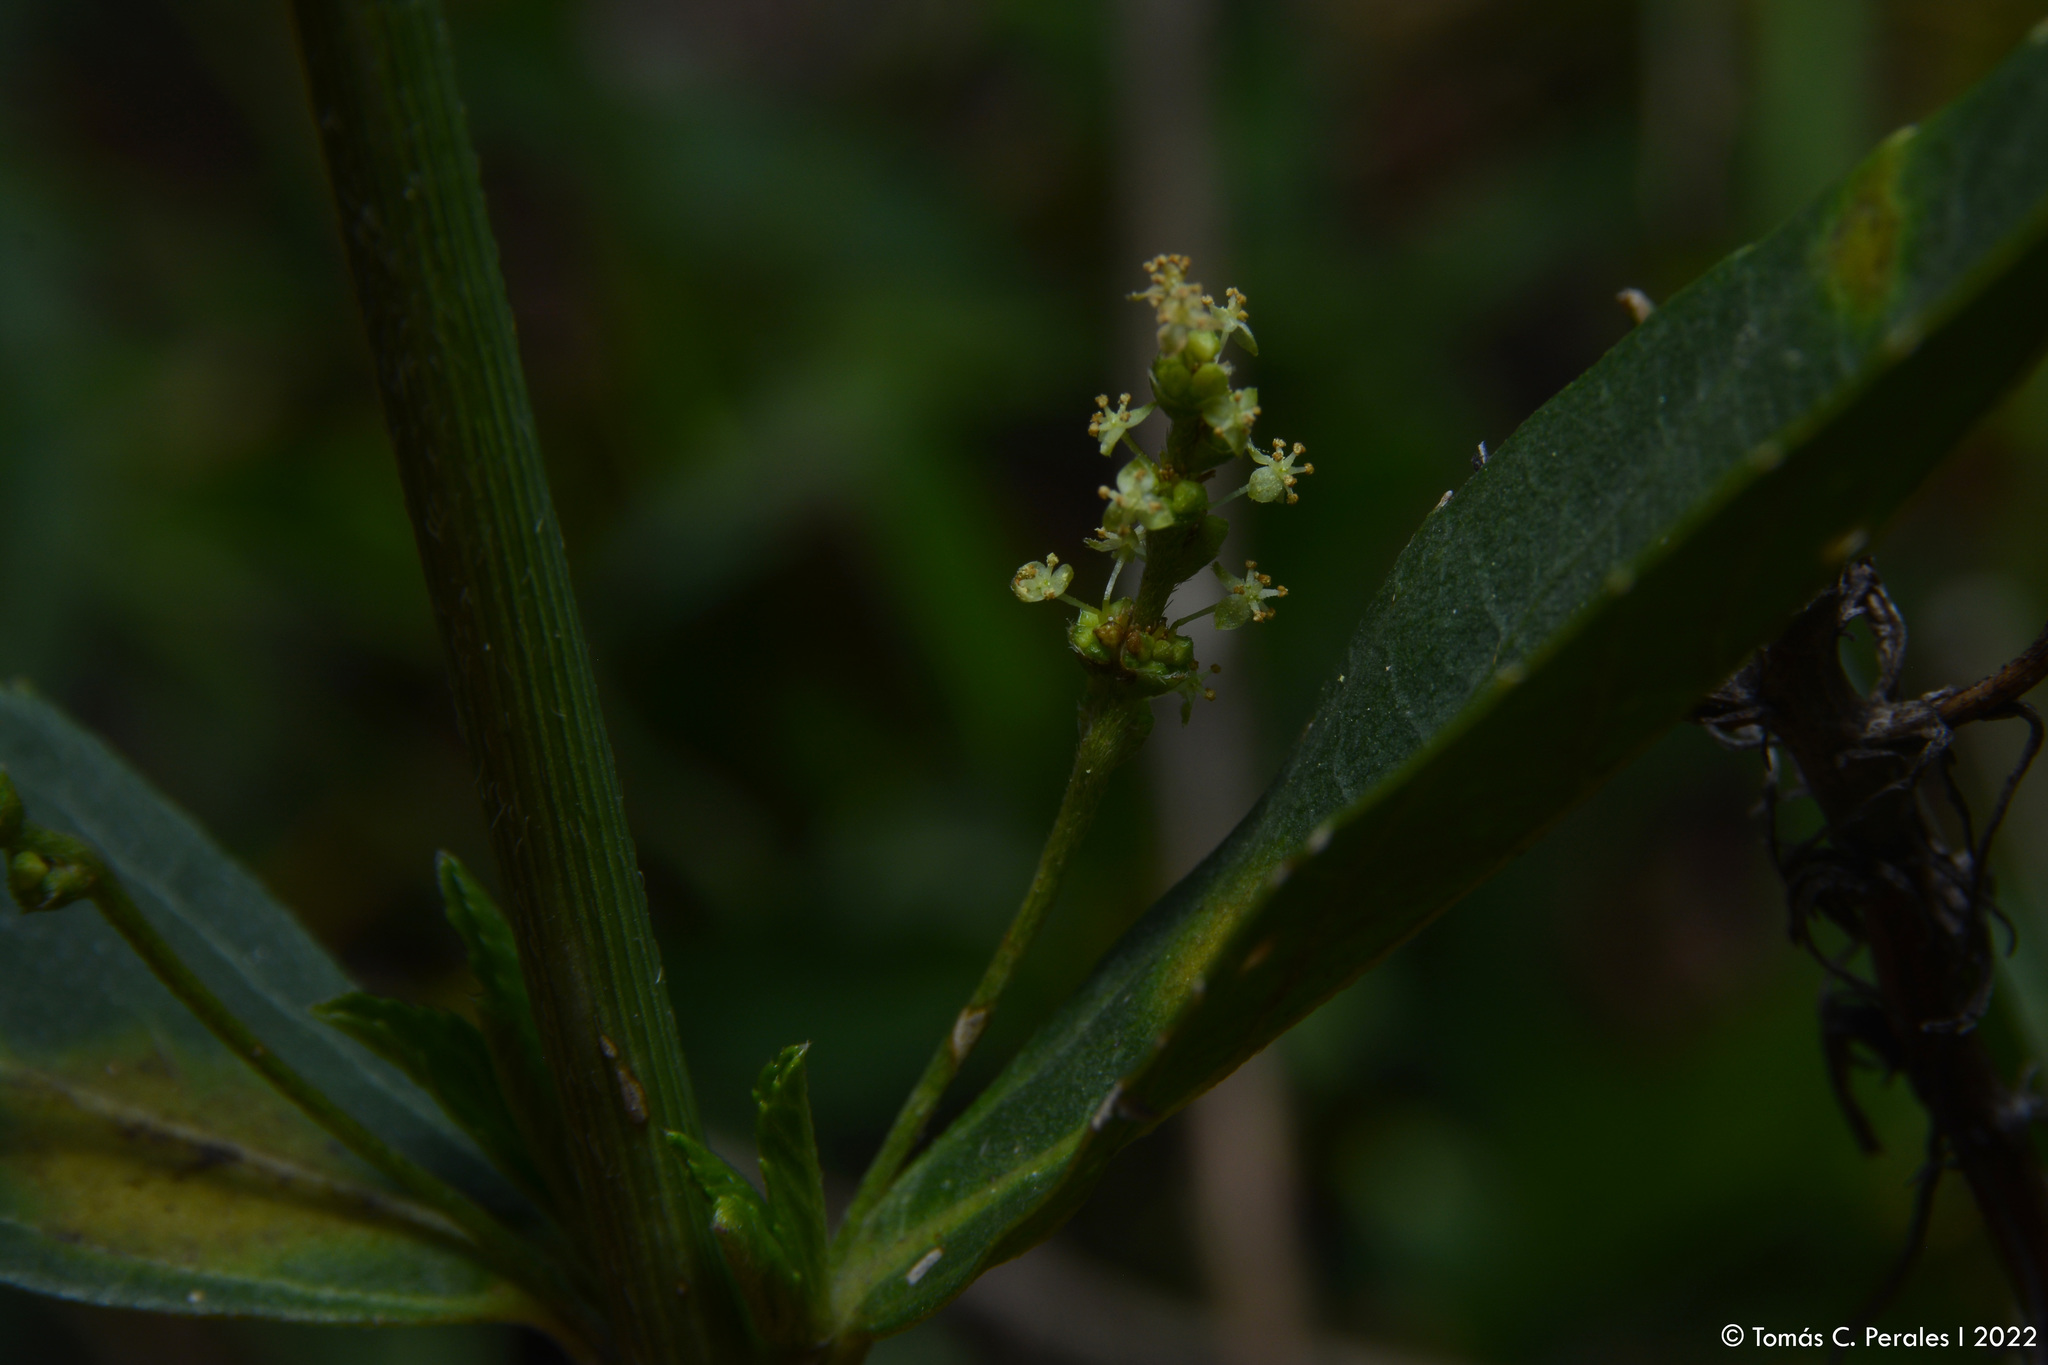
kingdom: Plantae
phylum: Tracheophyta
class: Magnoliopsida
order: Malpighiales
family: Euphorbiaceae
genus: Croton
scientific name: Croton bonplandianus
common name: Bonpland's croton
